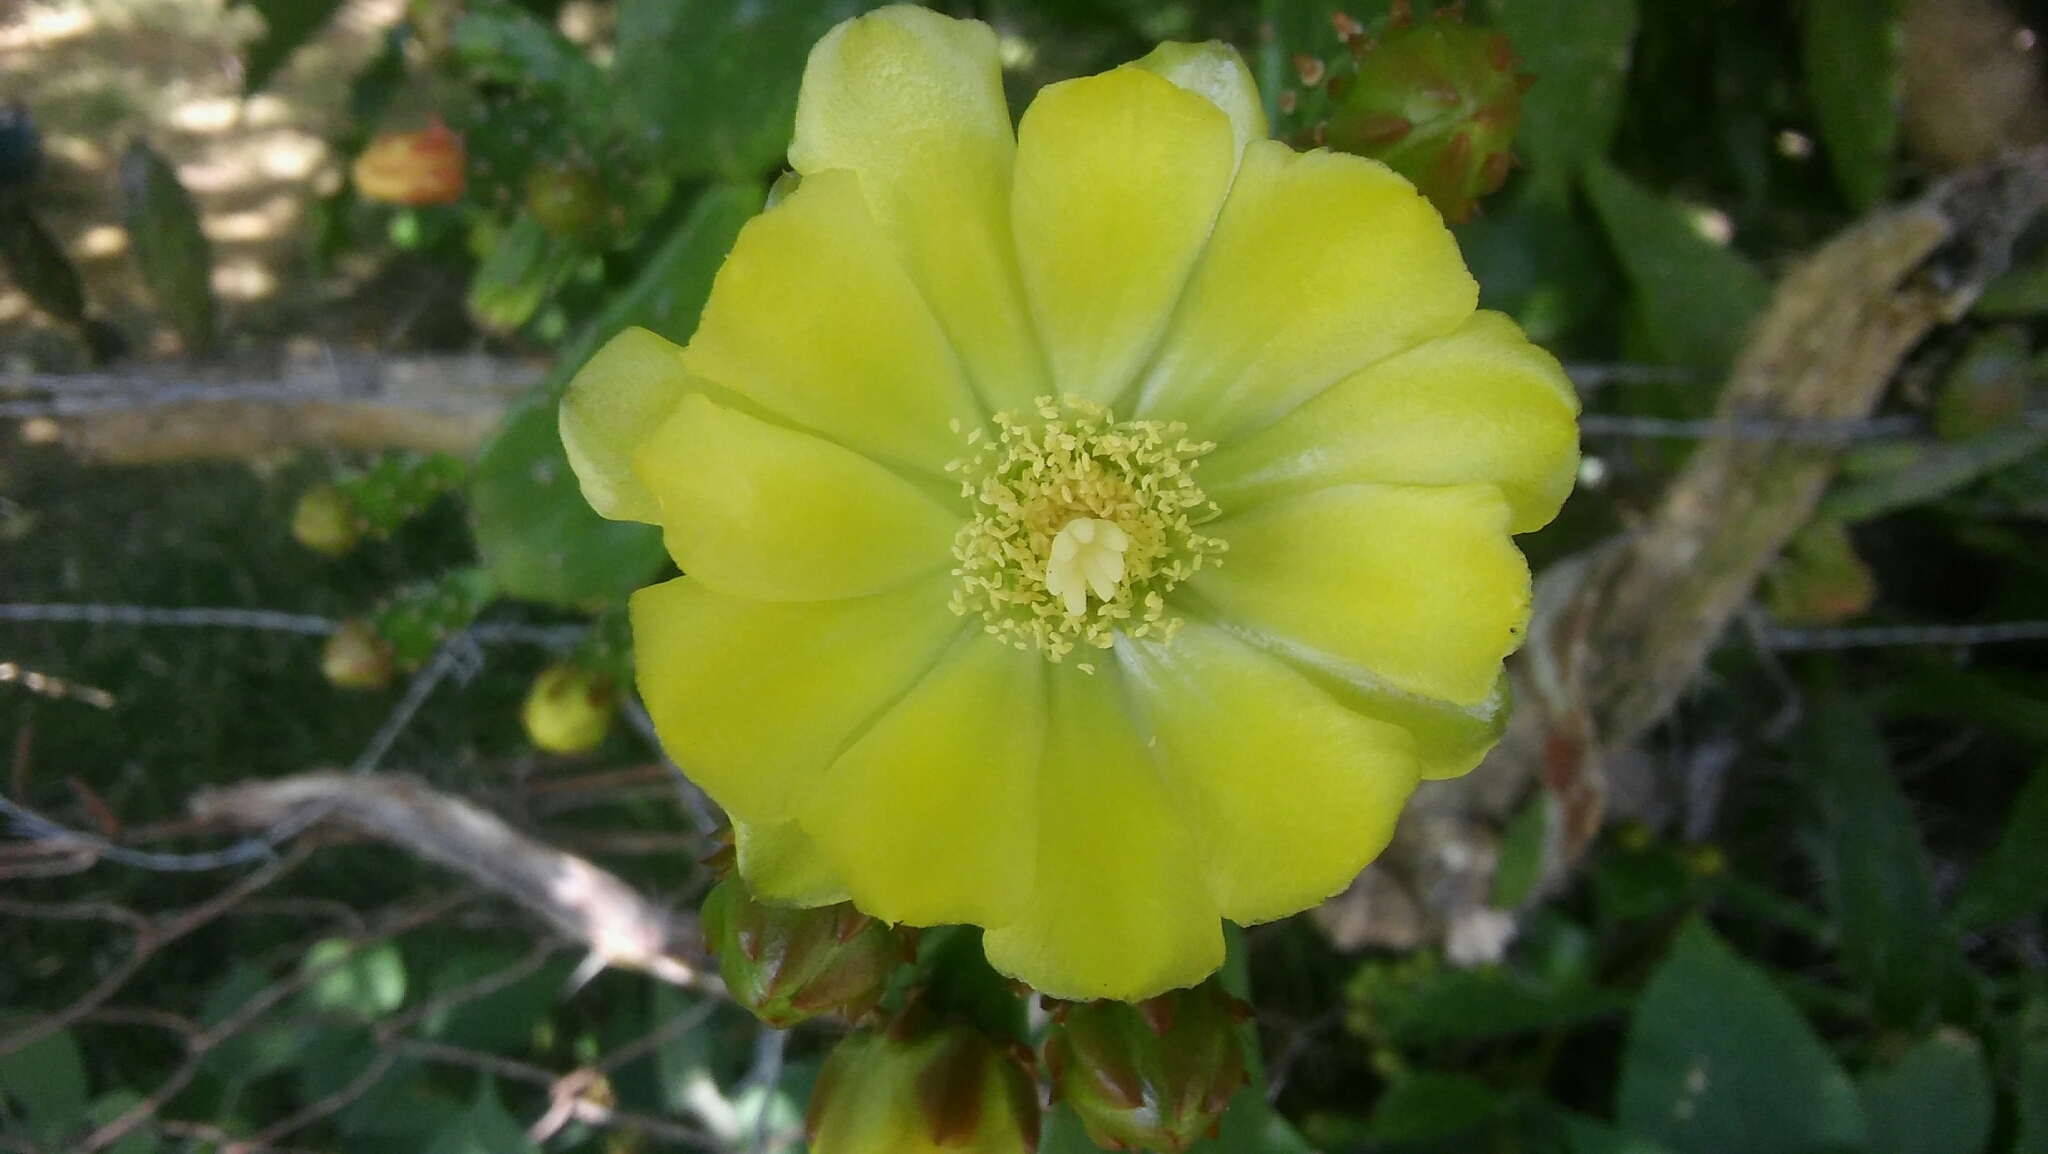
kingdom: Plantae
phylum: Tracheophyta
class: Magnoliopsida
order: Caryophyllales
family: Cactaceae
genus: Opuntia
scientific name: Opuntia monacantha
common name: Common pricklypear
